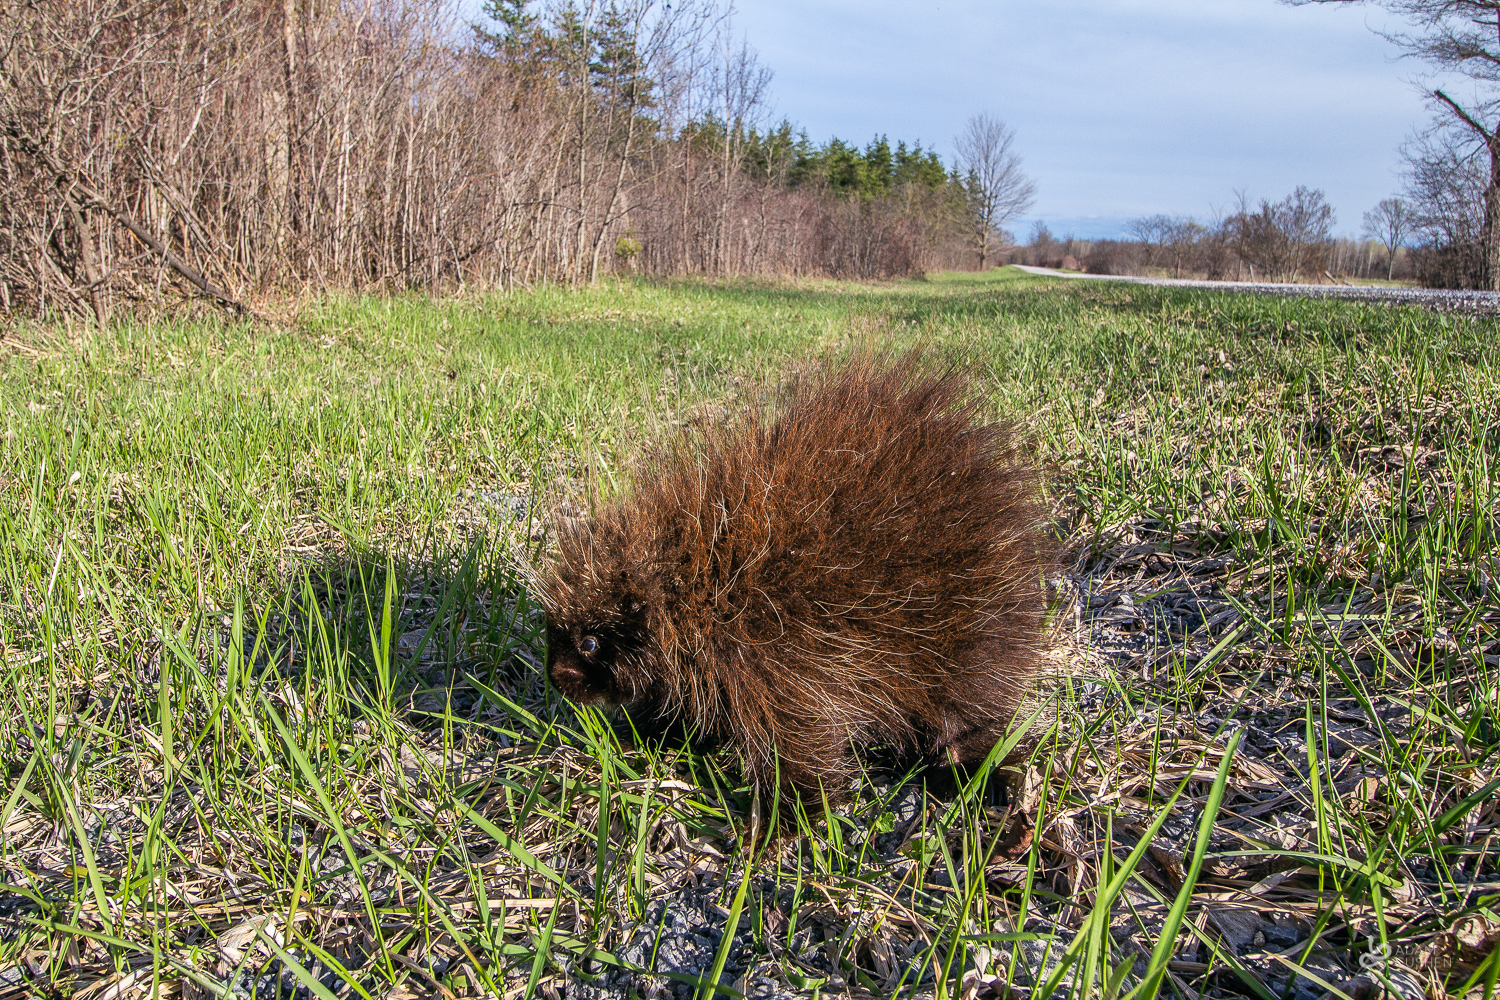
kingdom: Animalia
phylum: Chordata
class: Mammalia
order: Rodentia
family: Erethizontidae
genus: Erethizon
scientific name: Erethizon dorsatus
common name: North american porcupine
